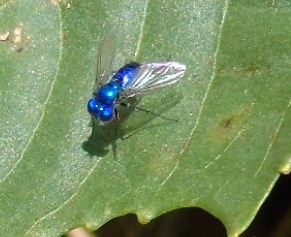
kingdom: Animalia
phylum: Arthropoda
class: Insecta
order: Diptera
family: Dolichopodidae
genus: Condylostylus
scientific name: Condylostylus mundus
